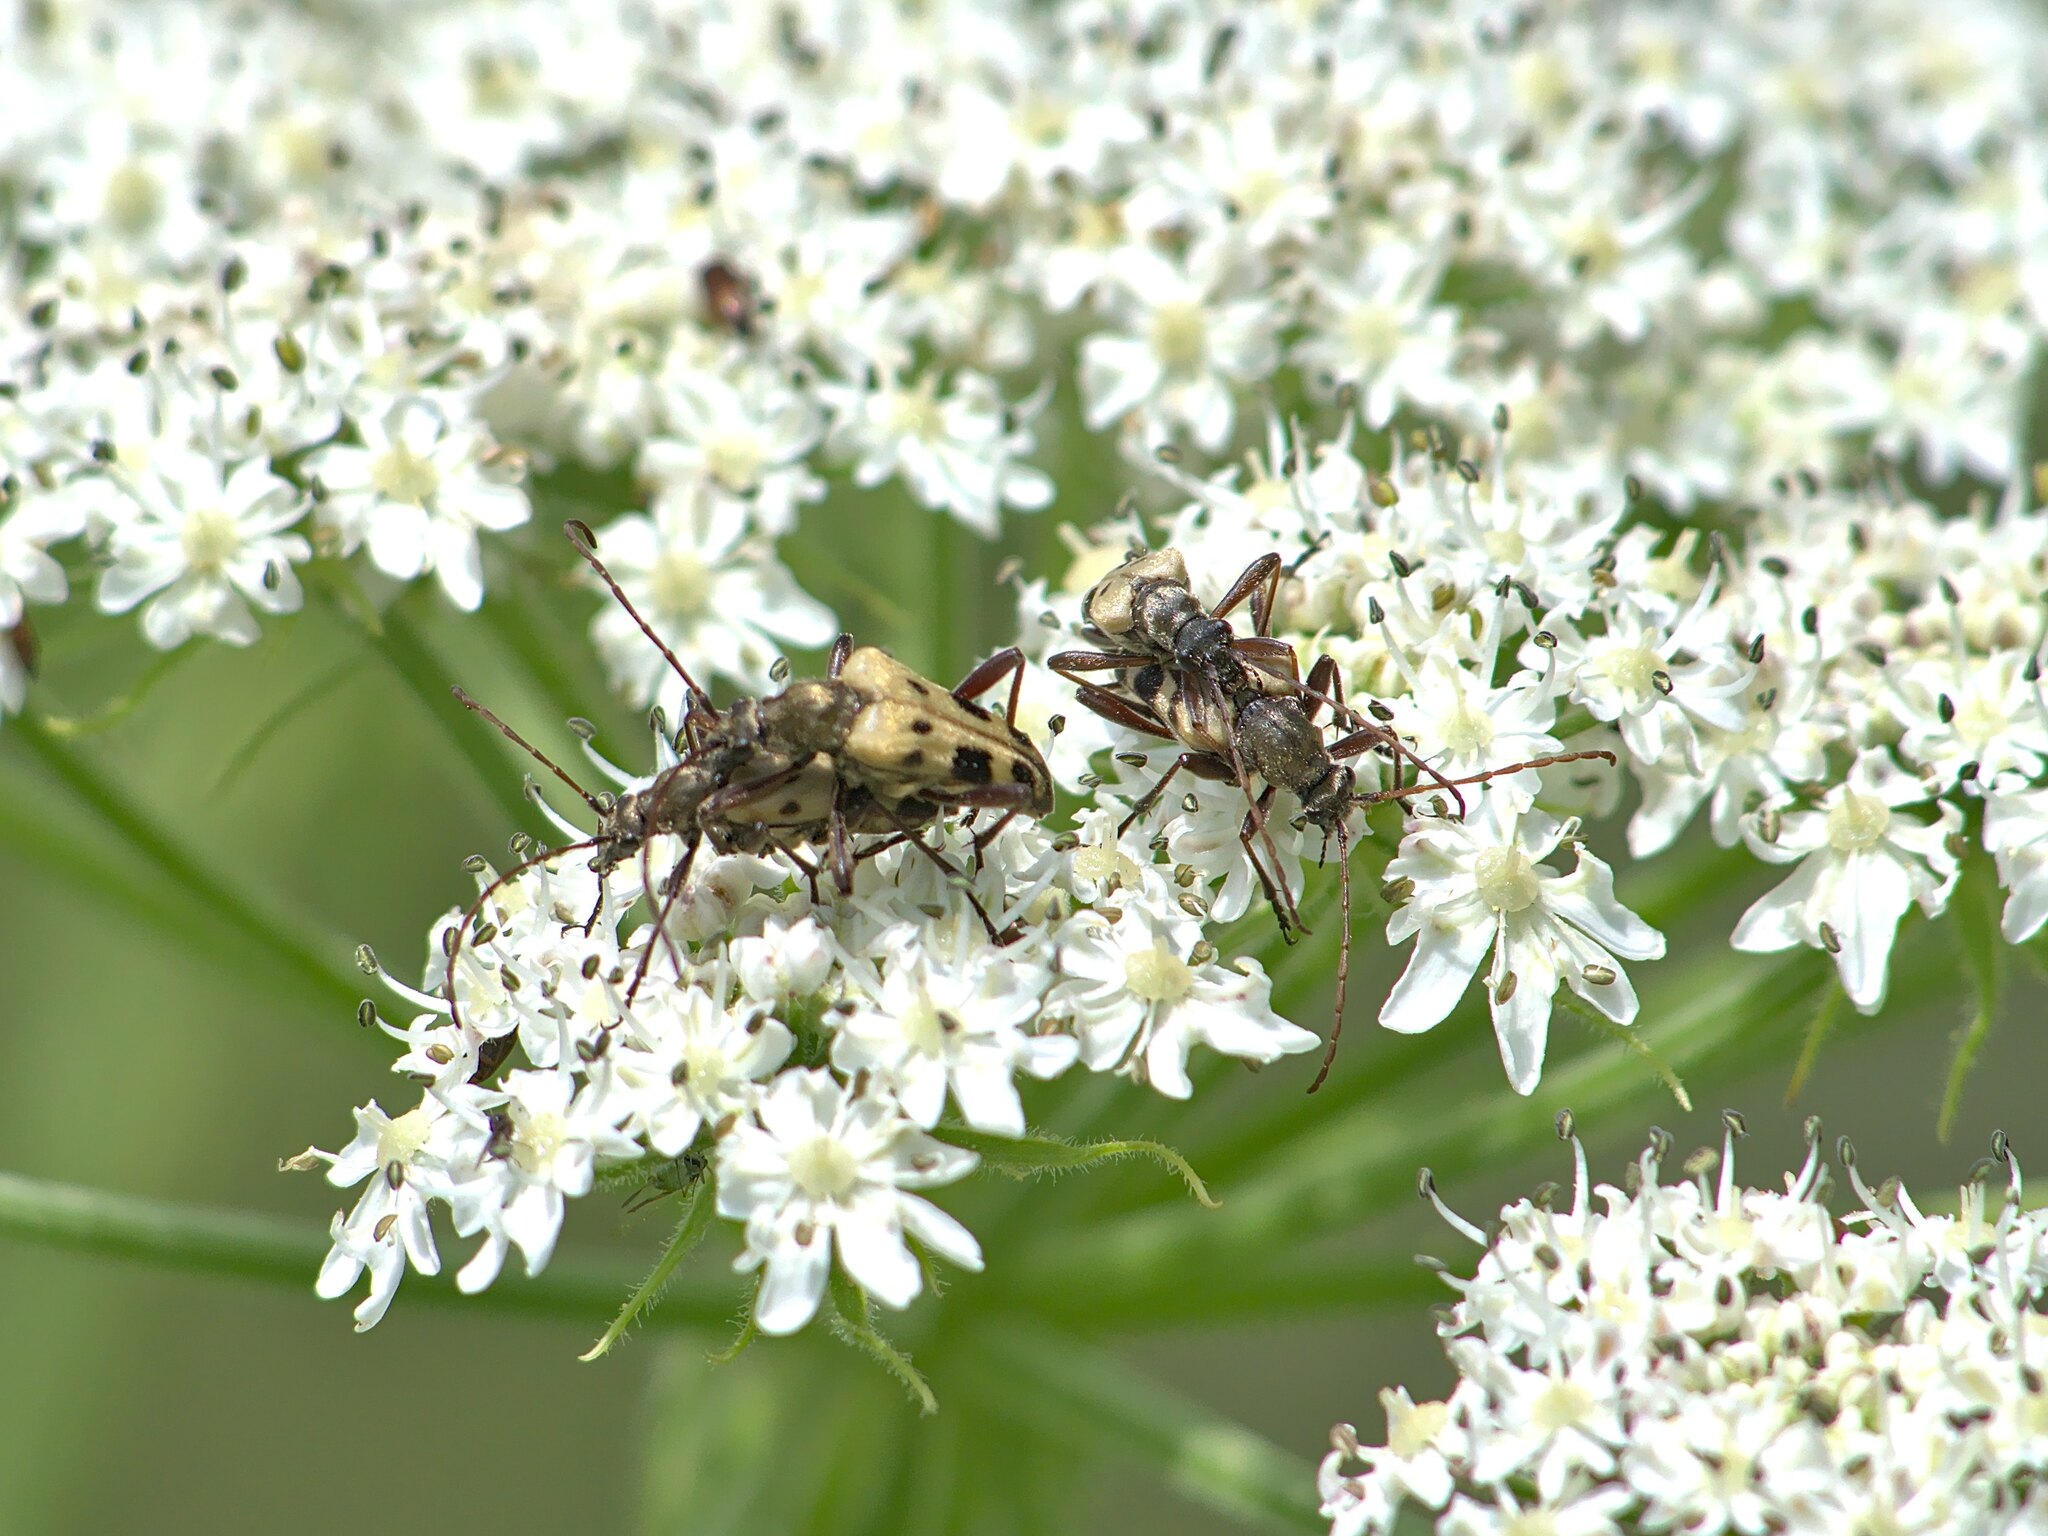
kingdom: Animalia
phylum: Arthropoda
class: Insecta
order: Coleoptera
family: Cerambycidae
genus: Evodinus
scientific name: Evodinus monticola
